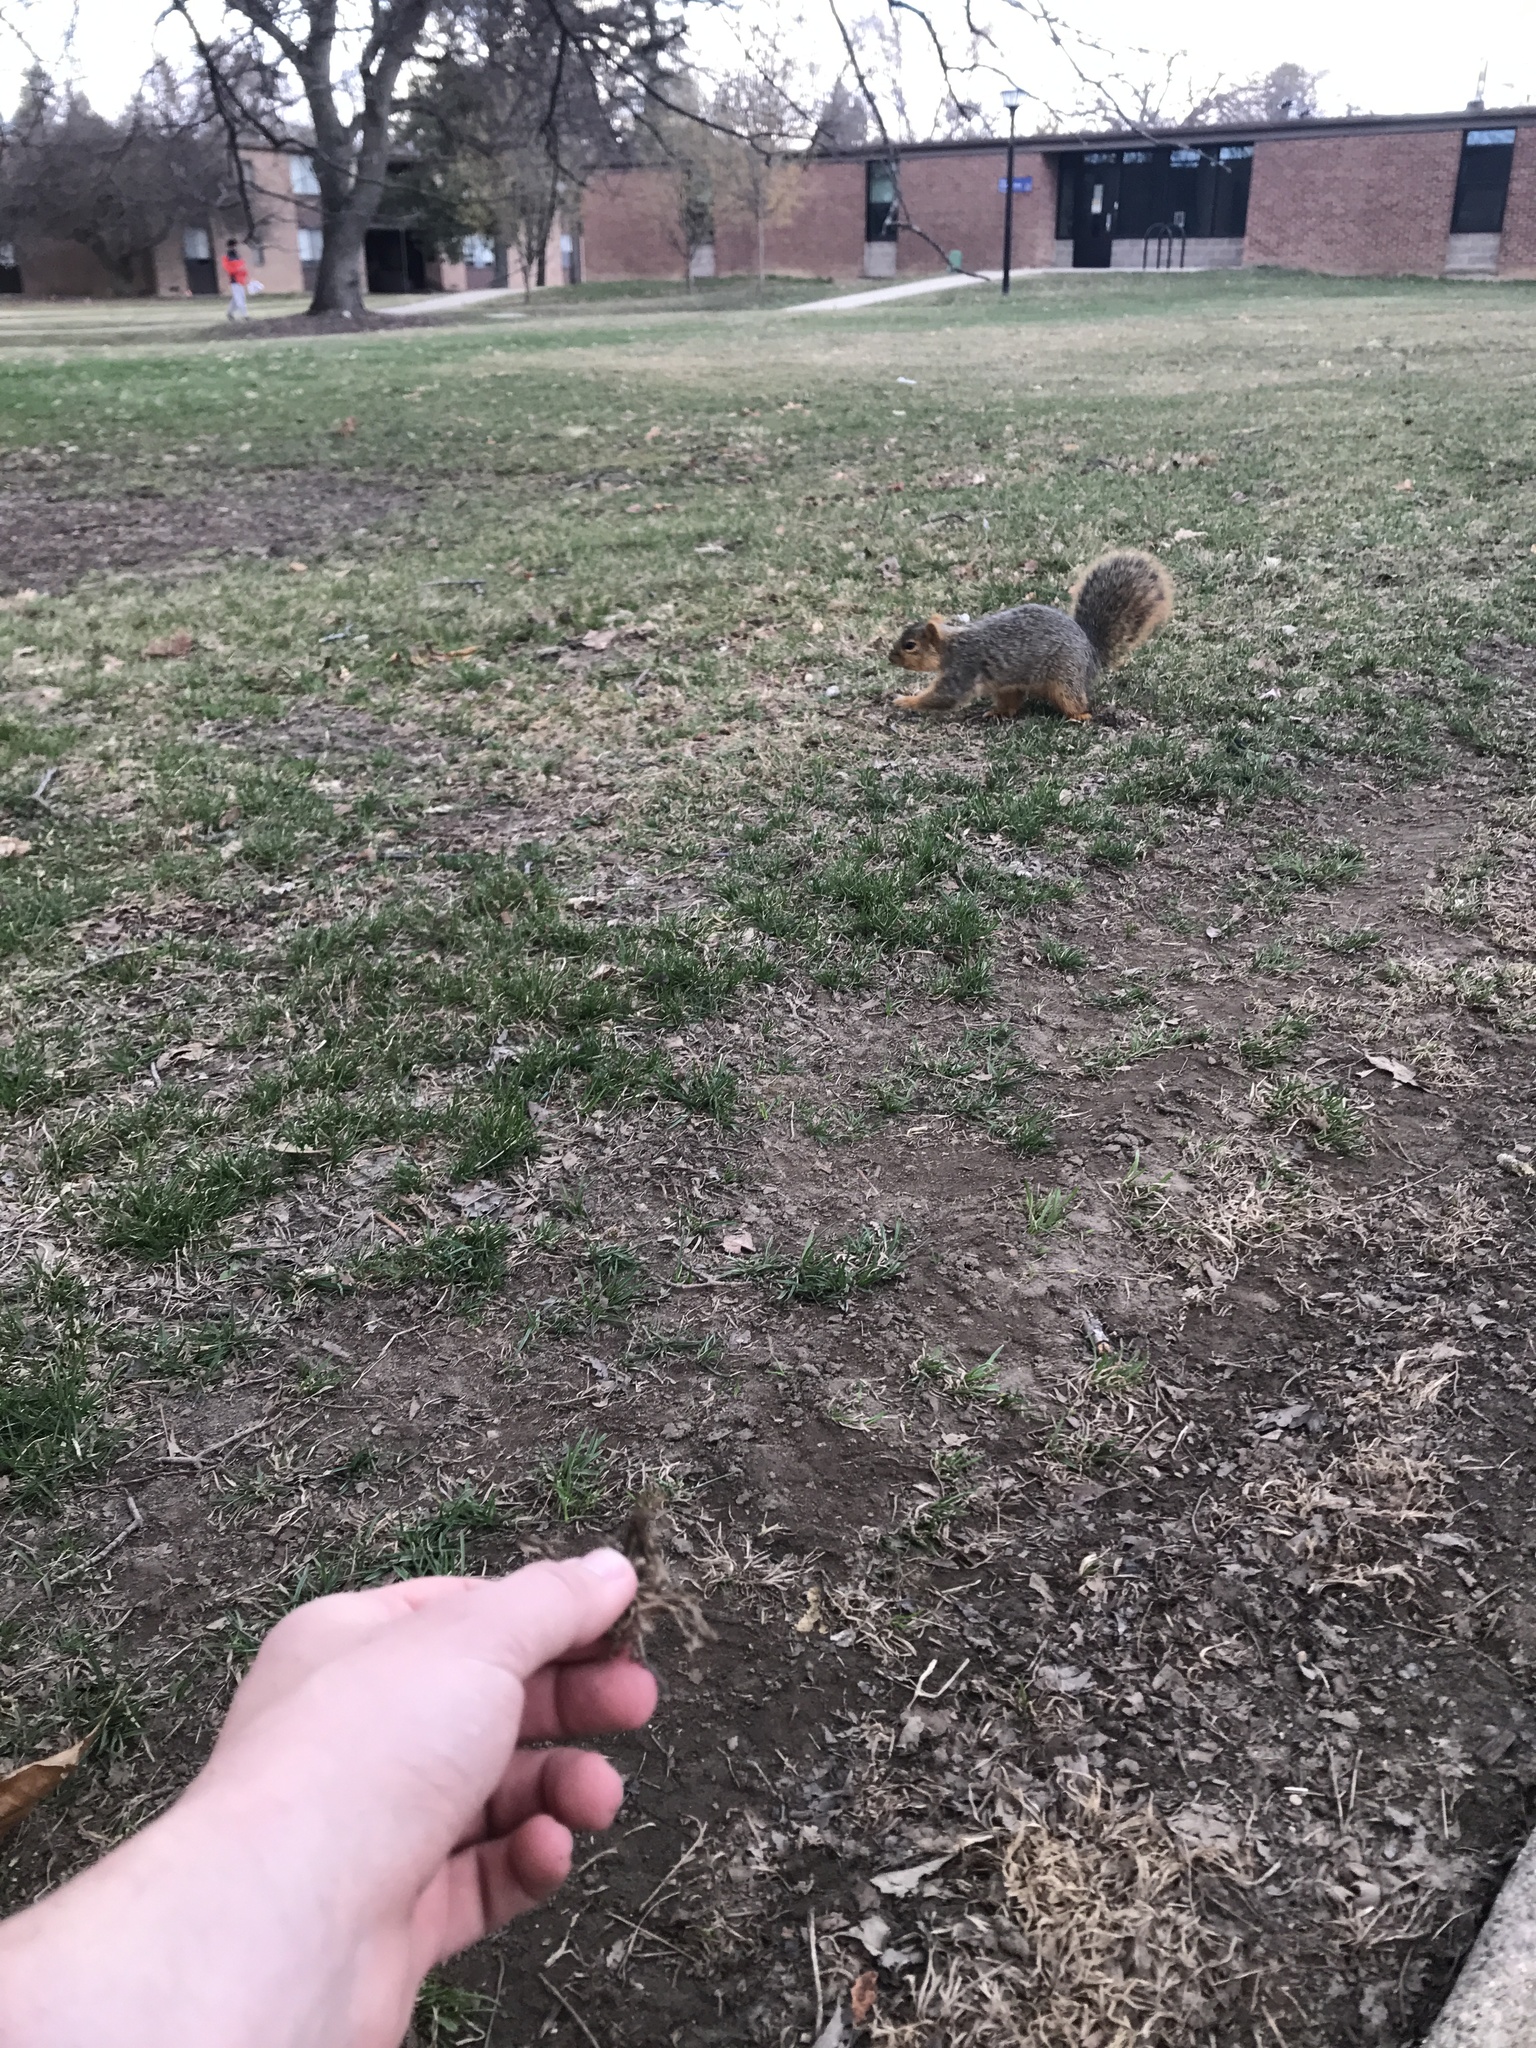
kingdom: Animalia
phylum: Chordata
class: Mammalia
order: Rodentia
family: Sciuridae
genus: Sciurus
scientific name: Sciurus niger
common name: Fox squirrel
